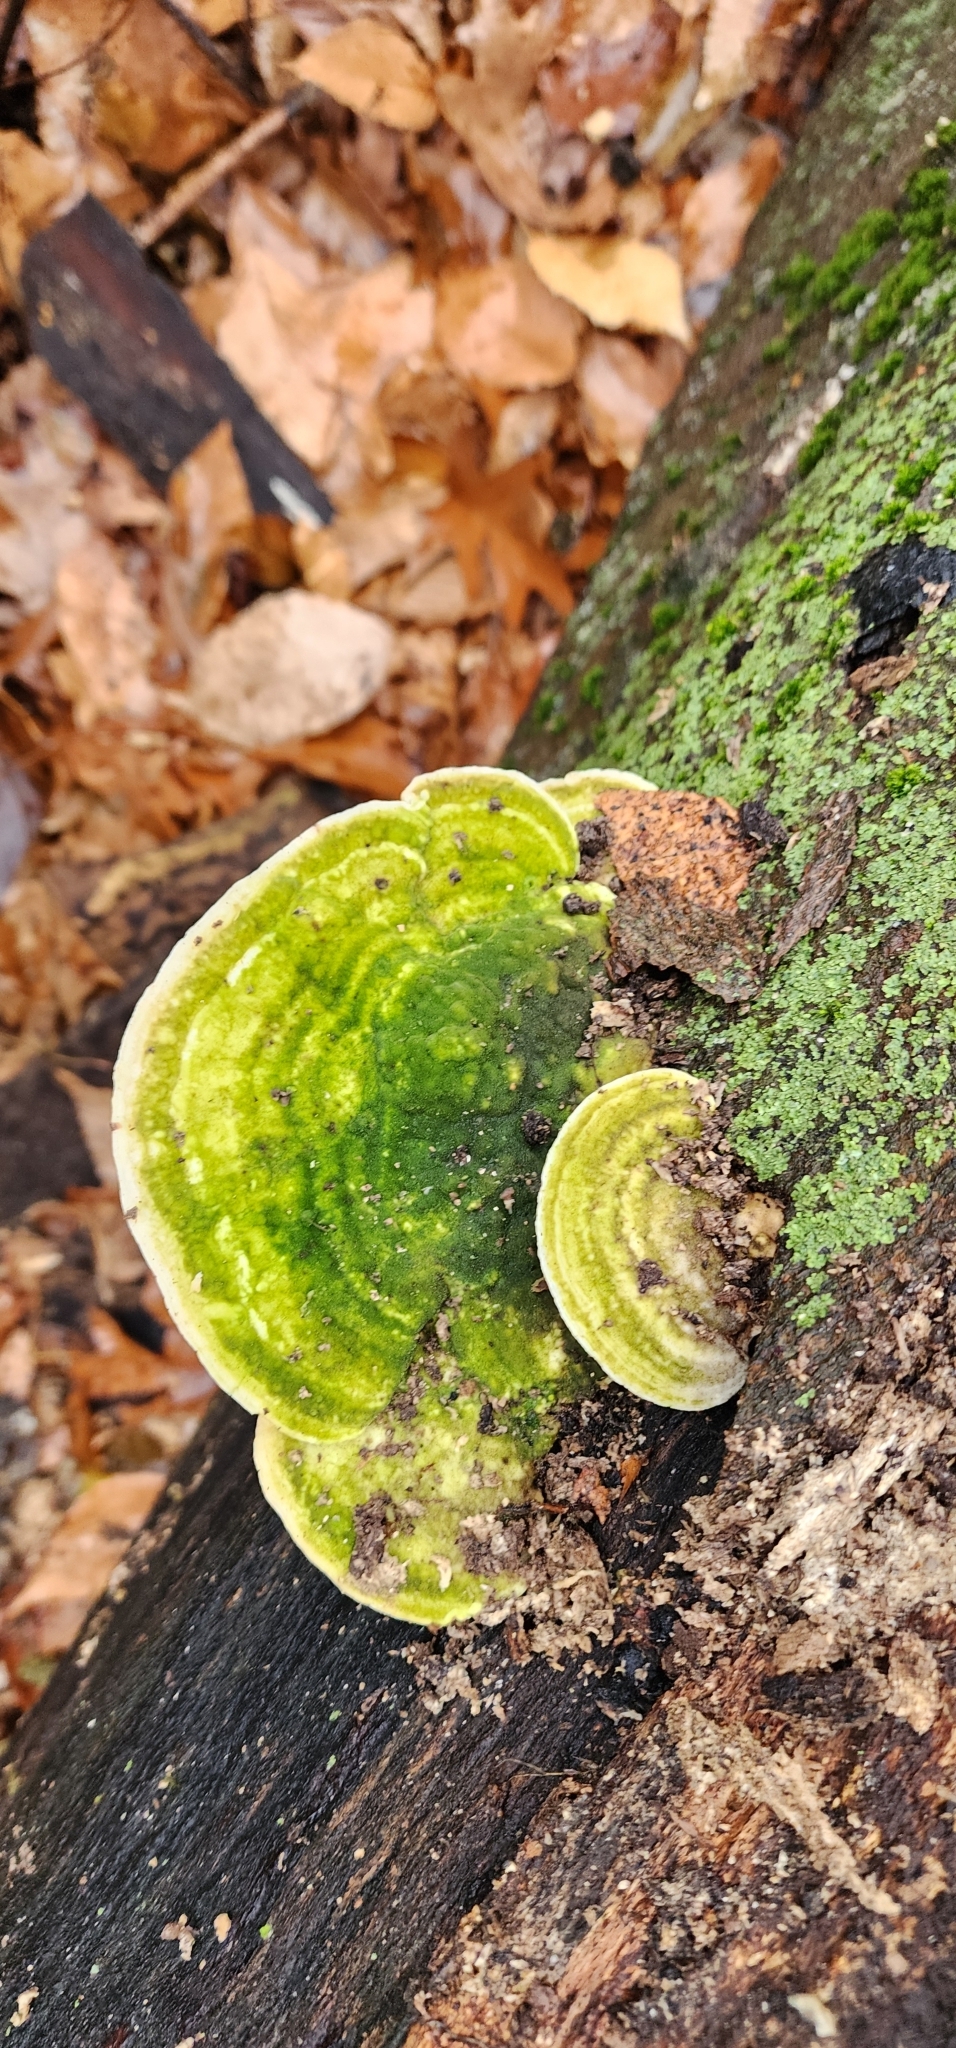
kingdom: Fungi
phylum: Basidiomycota
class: Agaricomycetes
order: Polyporales
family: Polyporaceae
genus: Trametes
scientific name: Trametes gibbosa
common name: Lumpy bracket
